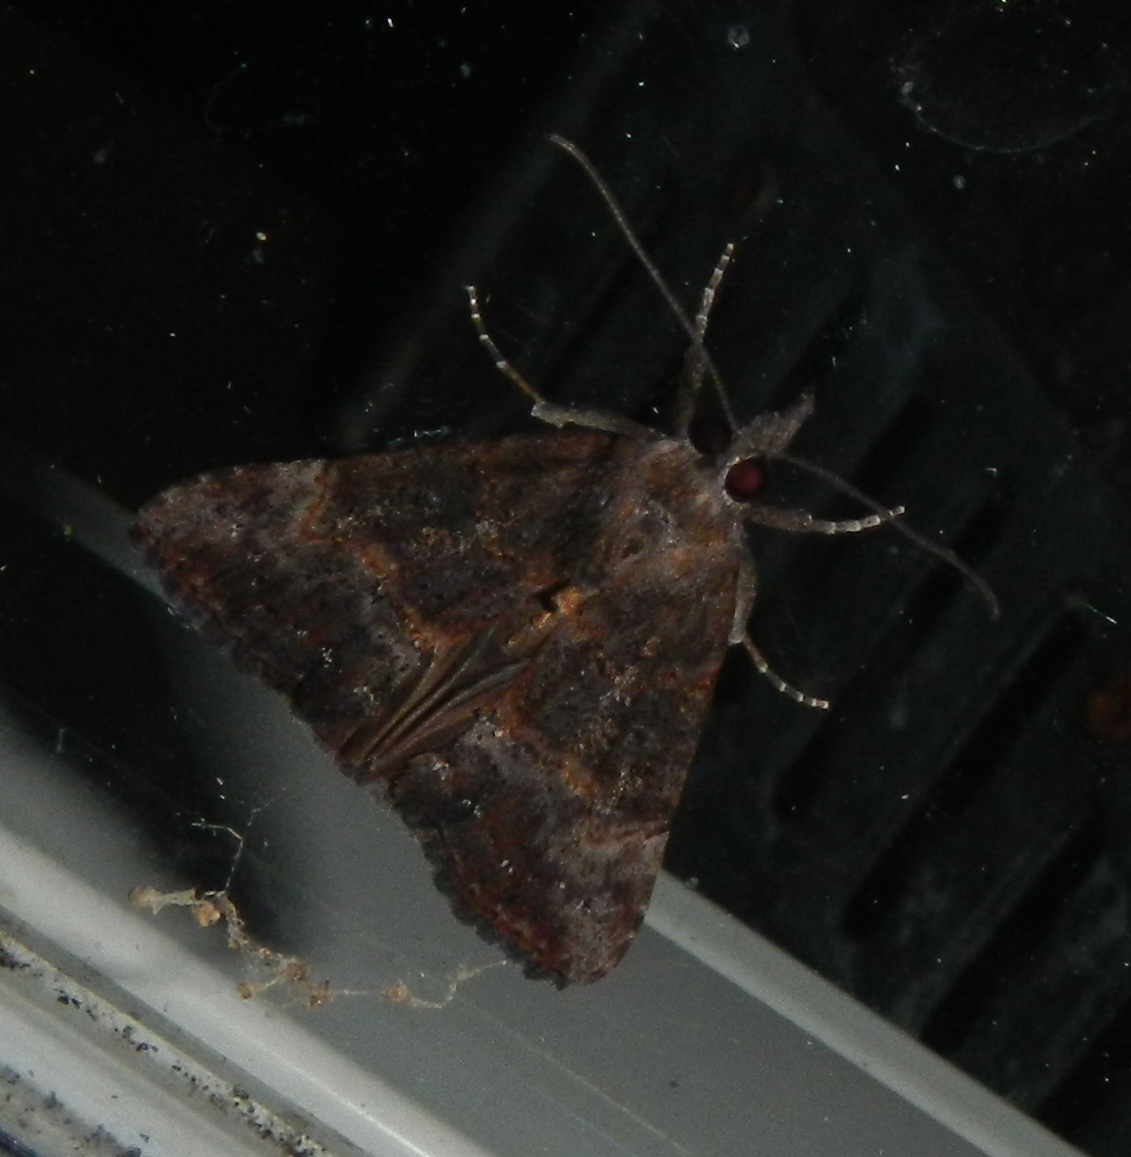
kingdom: Animalia
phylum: Arthropoda
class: Insecta
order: Lepidoptera
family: Erebidae
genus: Hypena
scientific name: Hypena scabra
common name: Green cloverworm
